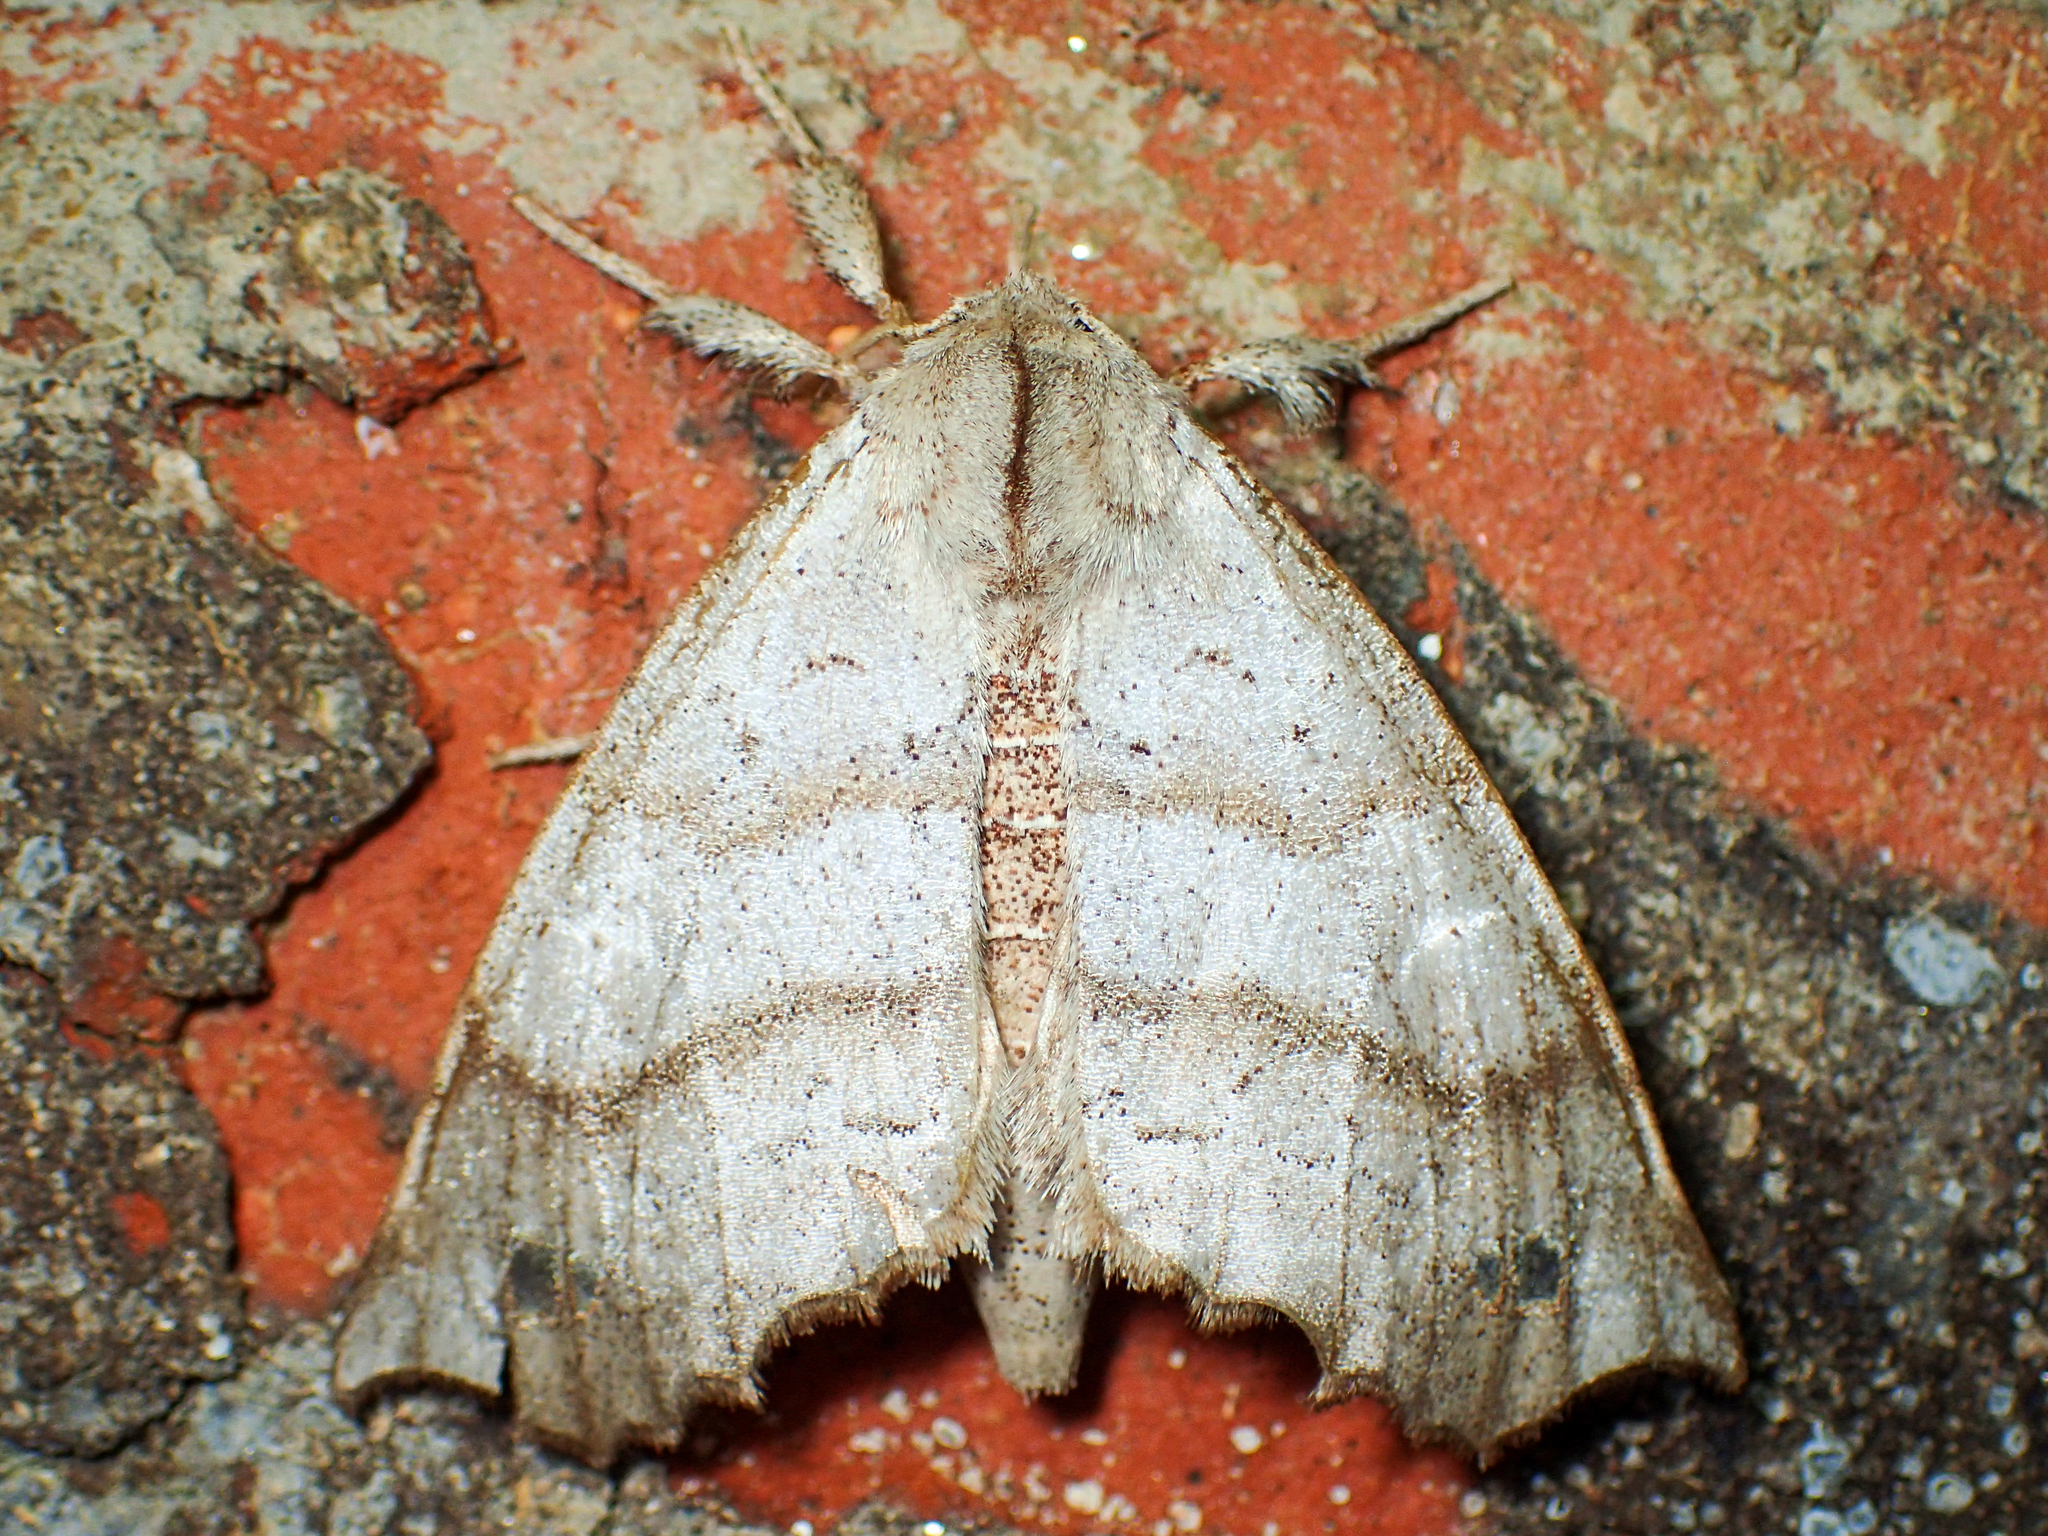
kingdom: Animalia
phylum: Arthropoda
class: Insecta
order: Lepidoptera
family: Apatelodidae
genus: Olceclostera
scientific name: Olceclostera angelica
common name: Angel moth
